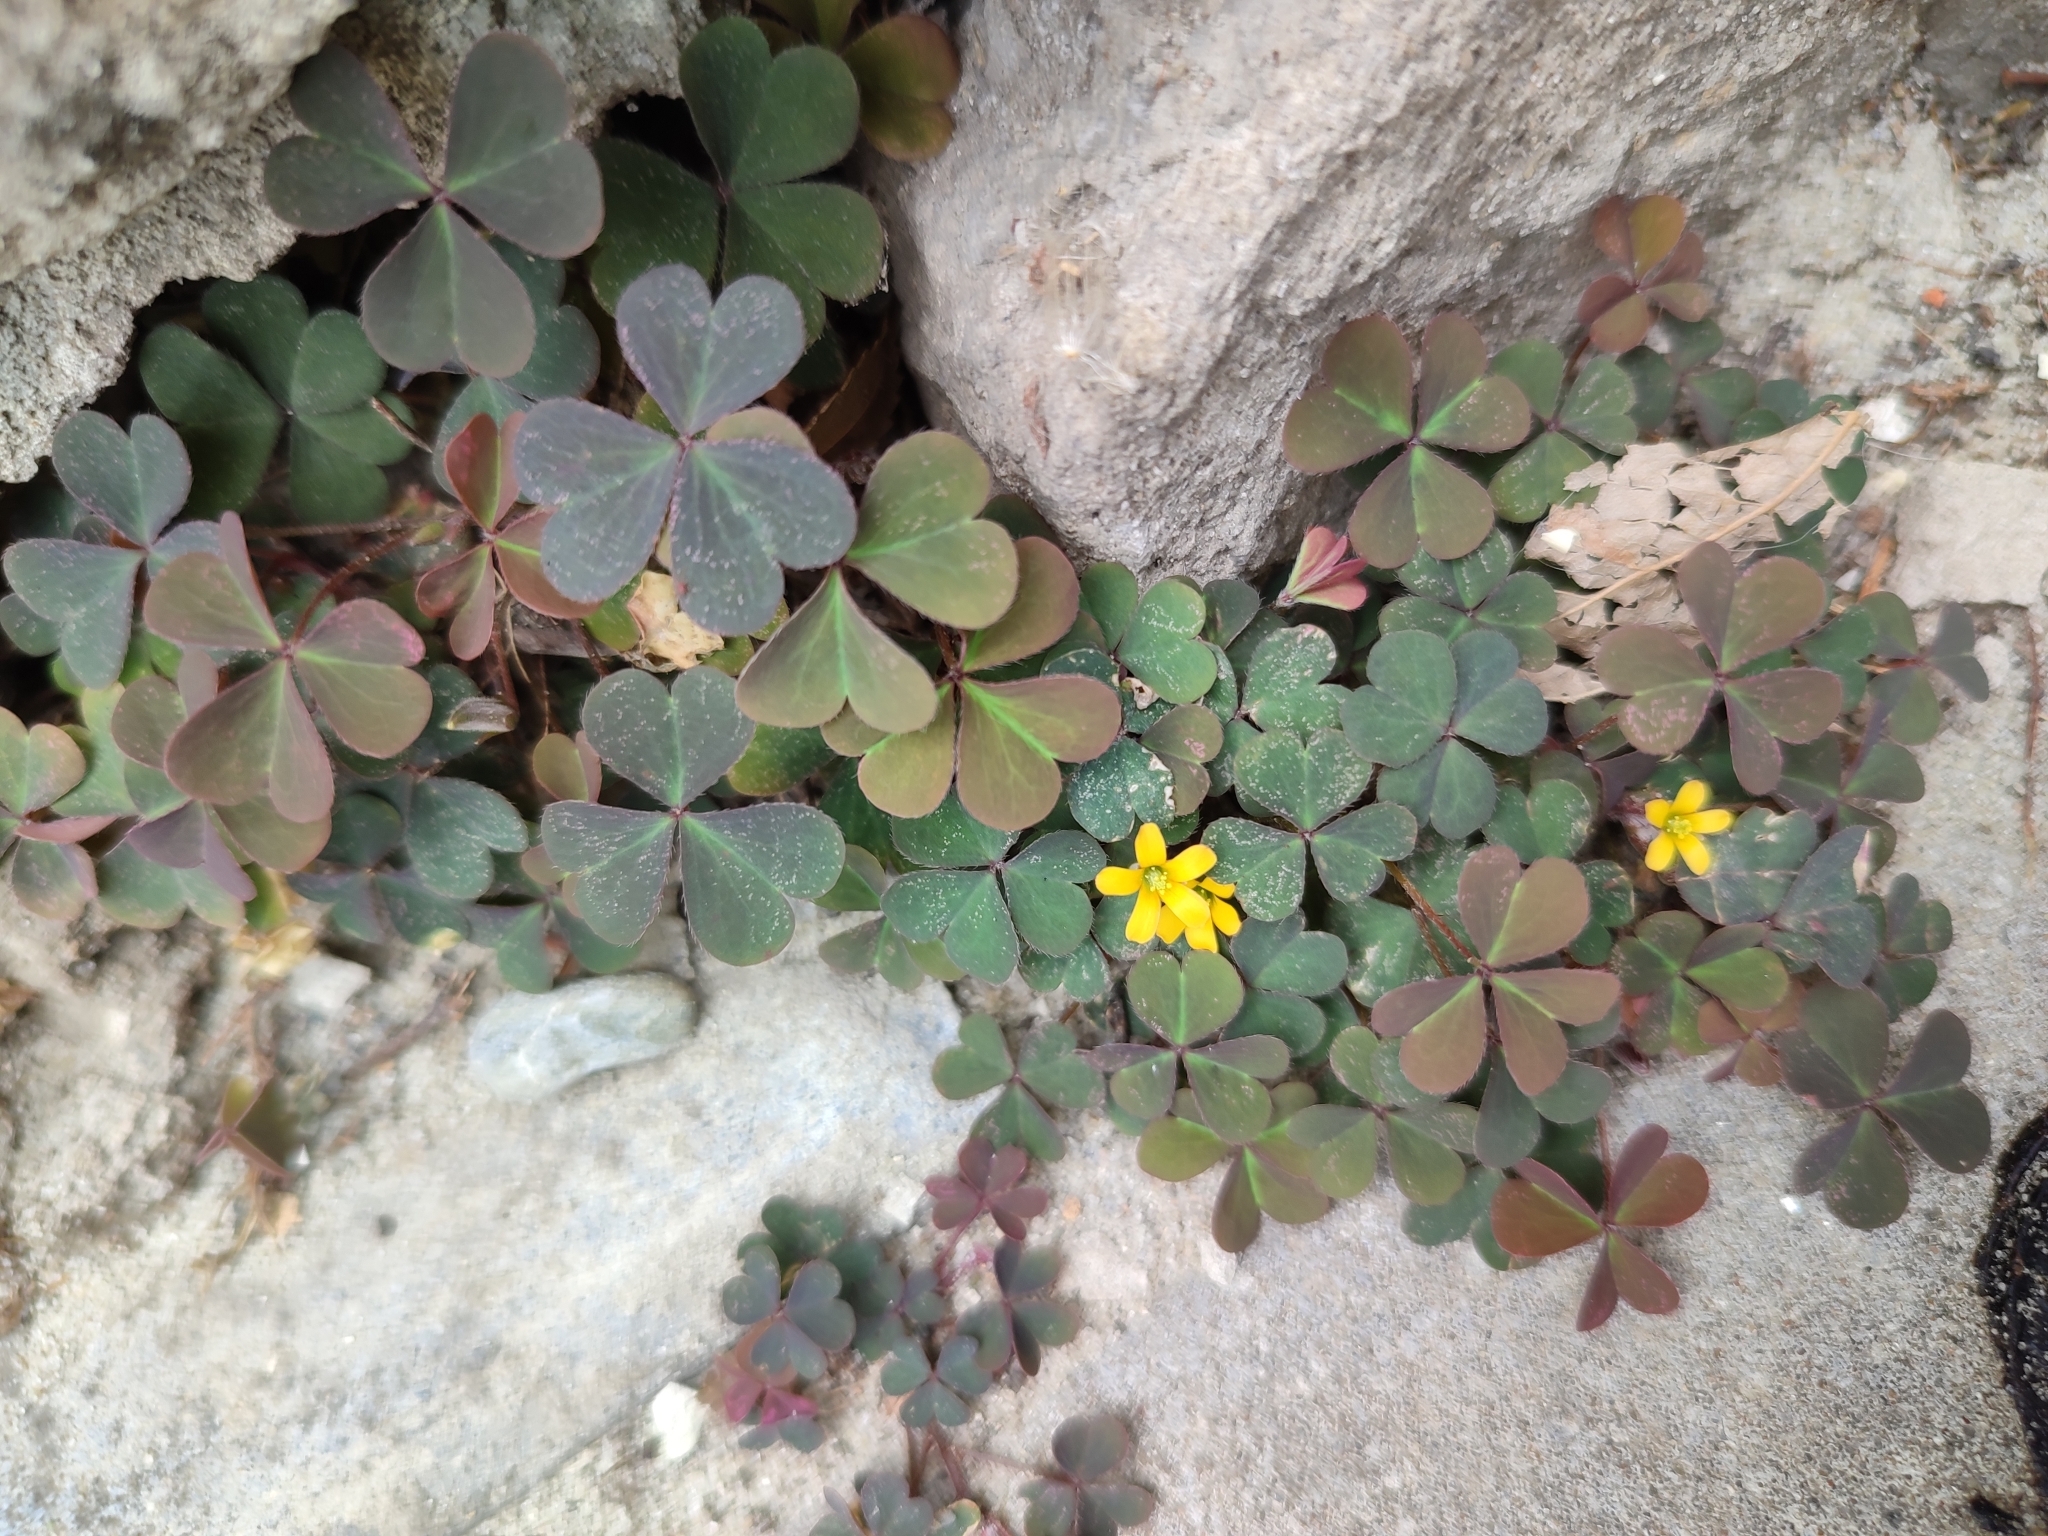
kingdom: Plantae
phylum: Tracheophyta
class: Magnoliopsida
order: Oxalidales
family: Oxalidaceae
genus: Oxalis
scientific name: Oxalis corniculata
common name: Procumbent yellow-sorrel
